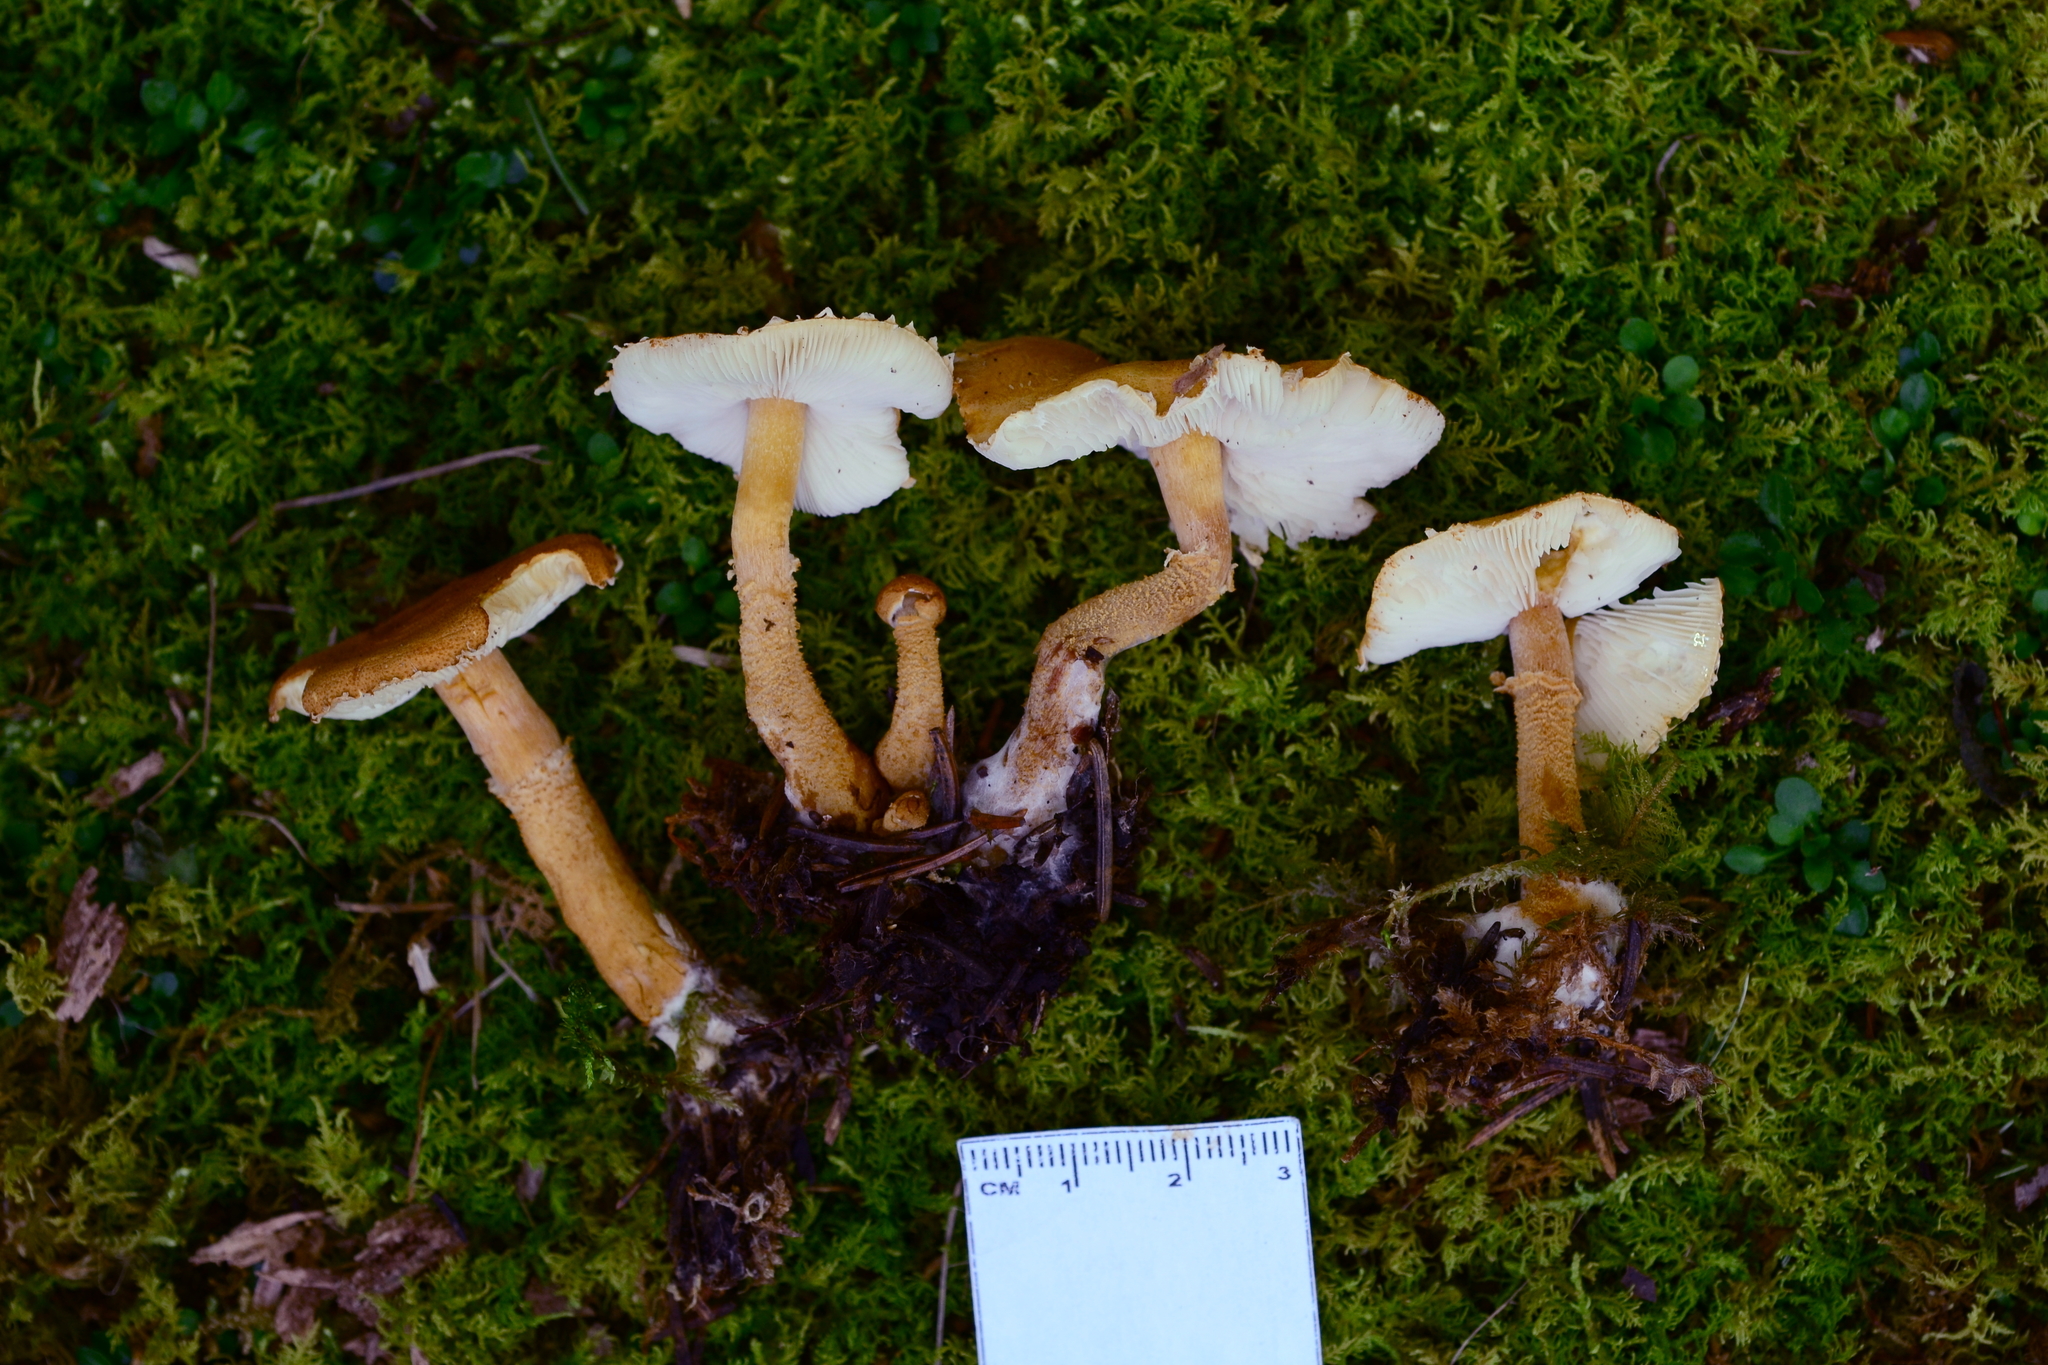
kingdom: Fungi
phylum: Basidiomycota
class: Agaricomycetes
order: Agaricales
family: Agaricaceae
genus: Cystodermella
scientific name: Cystodermella adnatifolia
